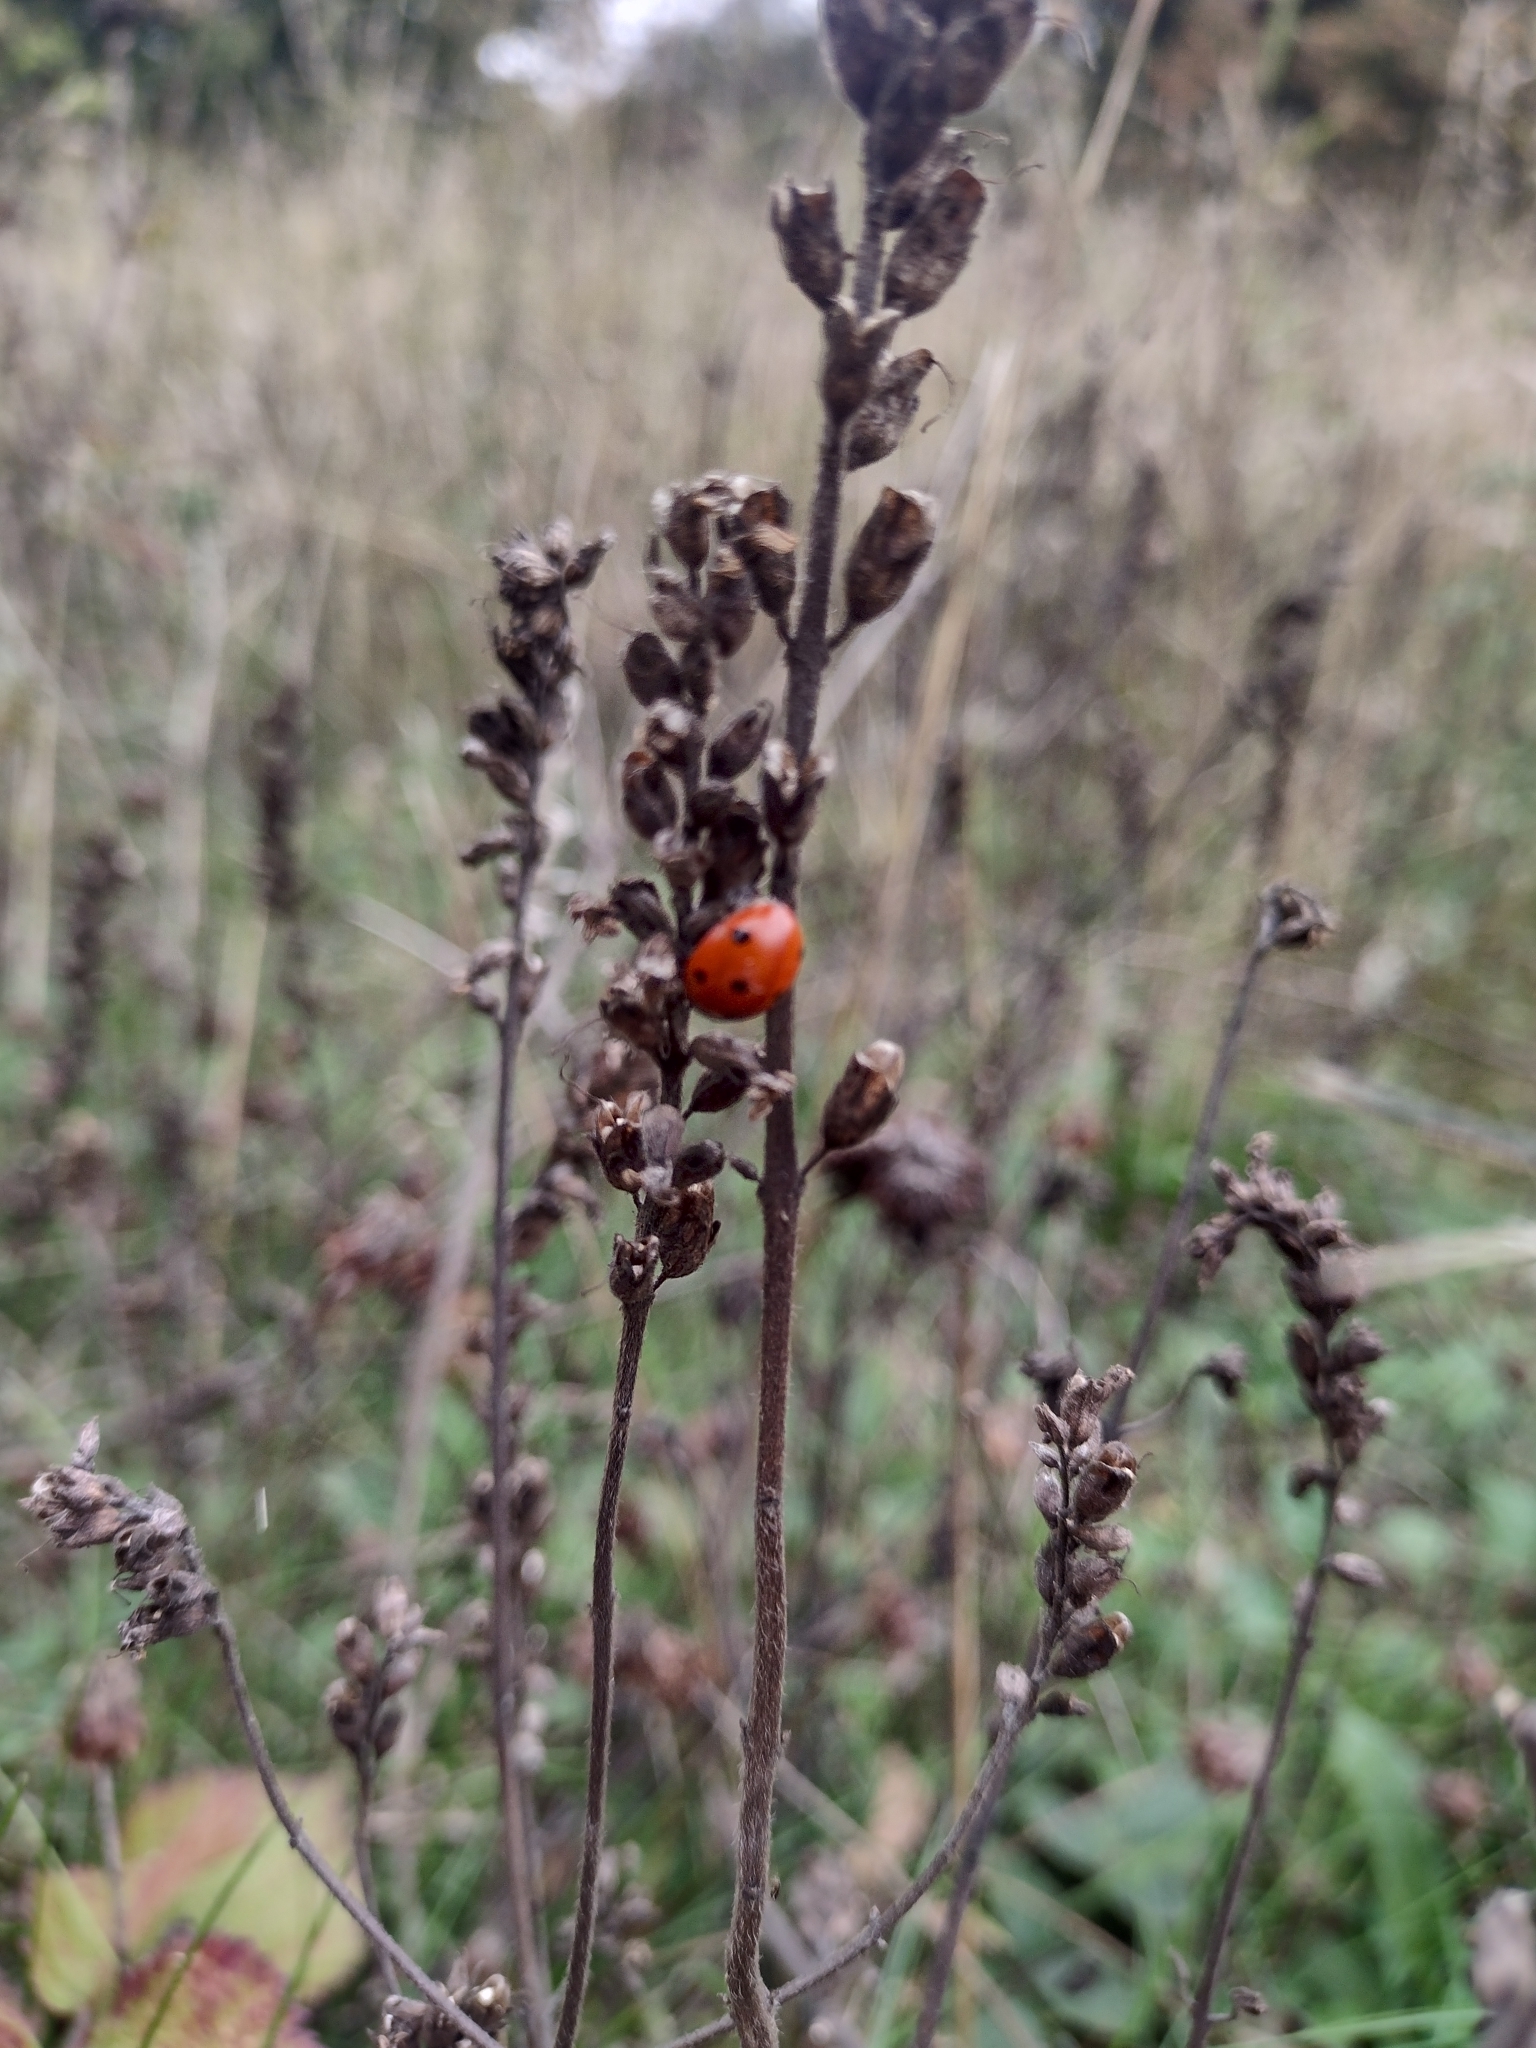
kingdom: Animalia
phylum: Arthropoda
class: Insecta
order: Coleoptera
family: Coccinellidae
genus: Coccinella
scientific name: Coccinella septempunctata
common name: Sevenspotted lady beetle
